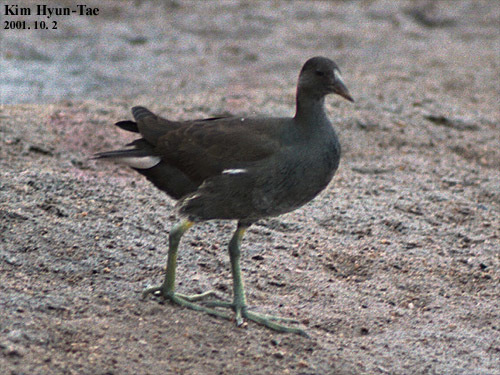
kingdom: Animalia
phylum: Chordata
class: Aves
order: Gruiformes
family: Rallidae
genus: Gallinula
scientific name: Gallinula chloropus
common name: Common moorhen
